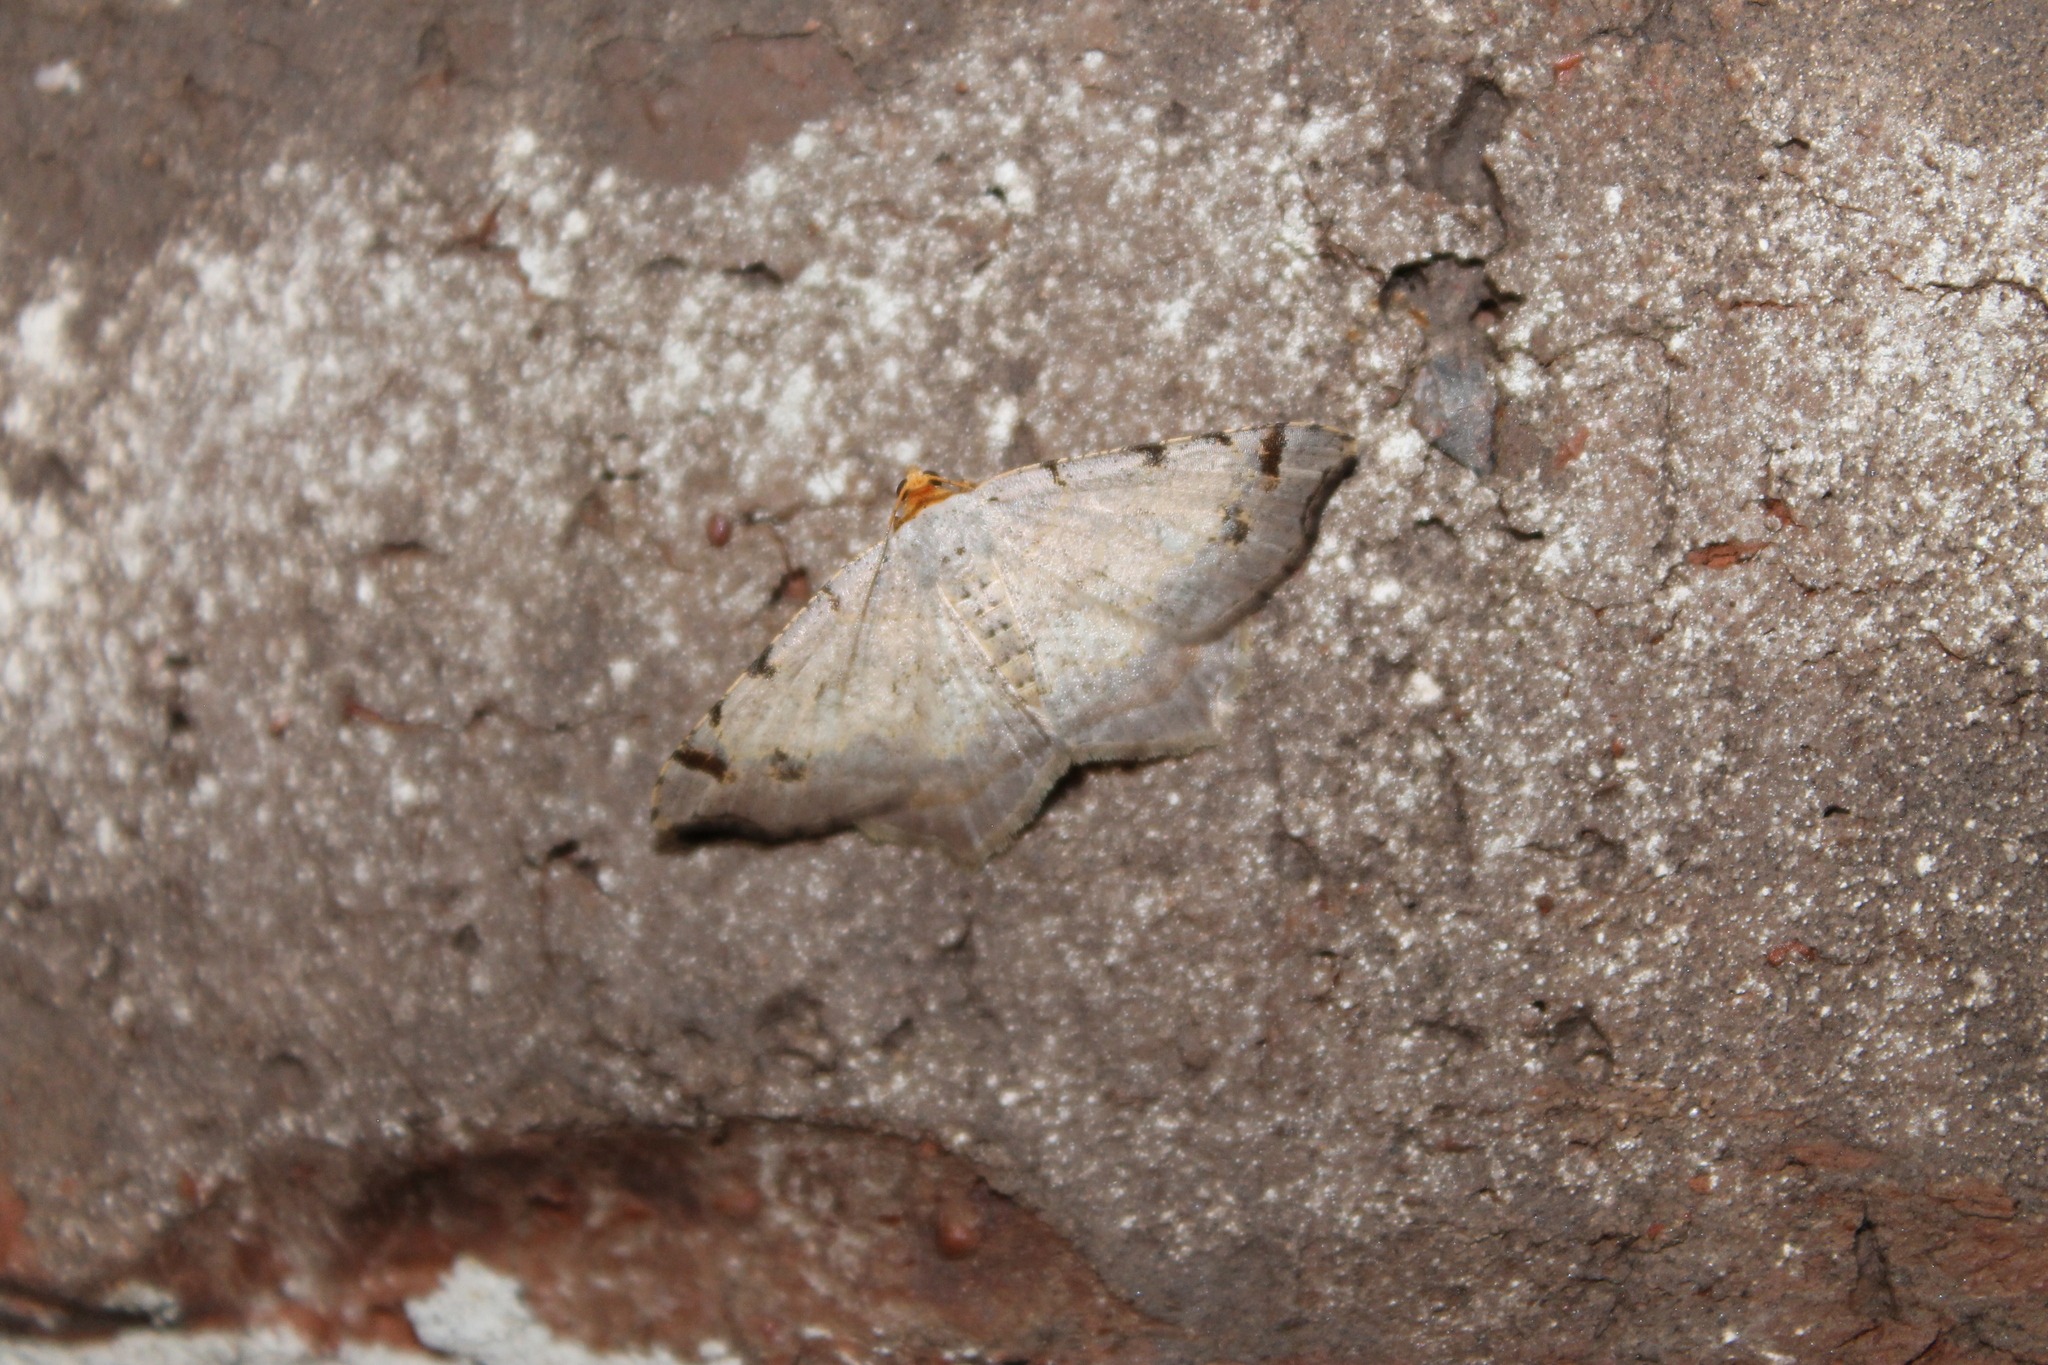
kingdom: Animalia
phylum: Arthropoda
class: Insecta
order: Lepidoptera
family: Geometridae
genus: Macaria
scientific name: Macaria bisignata
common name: Red-headed inchworm
